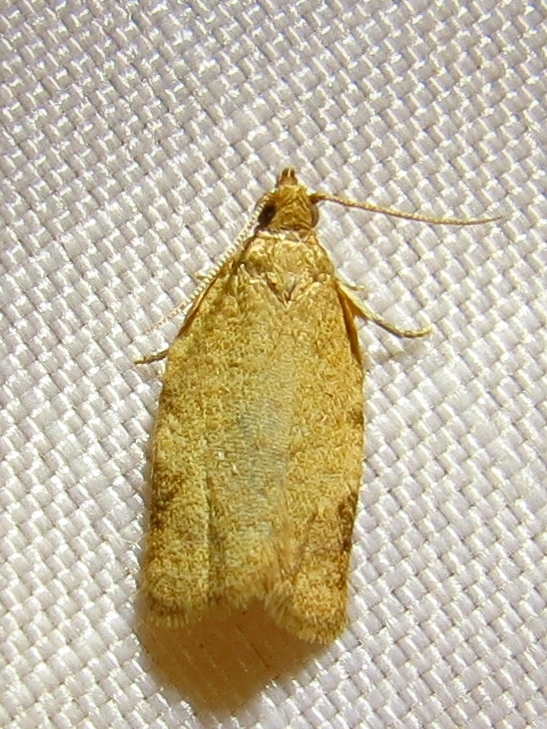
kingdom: Animalia
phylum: Arthropoda
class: Insecta
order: Lepidoptera
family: Tortricidae
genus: Clepsis
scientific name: Clepsis virescana
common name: Greenish apple moth
